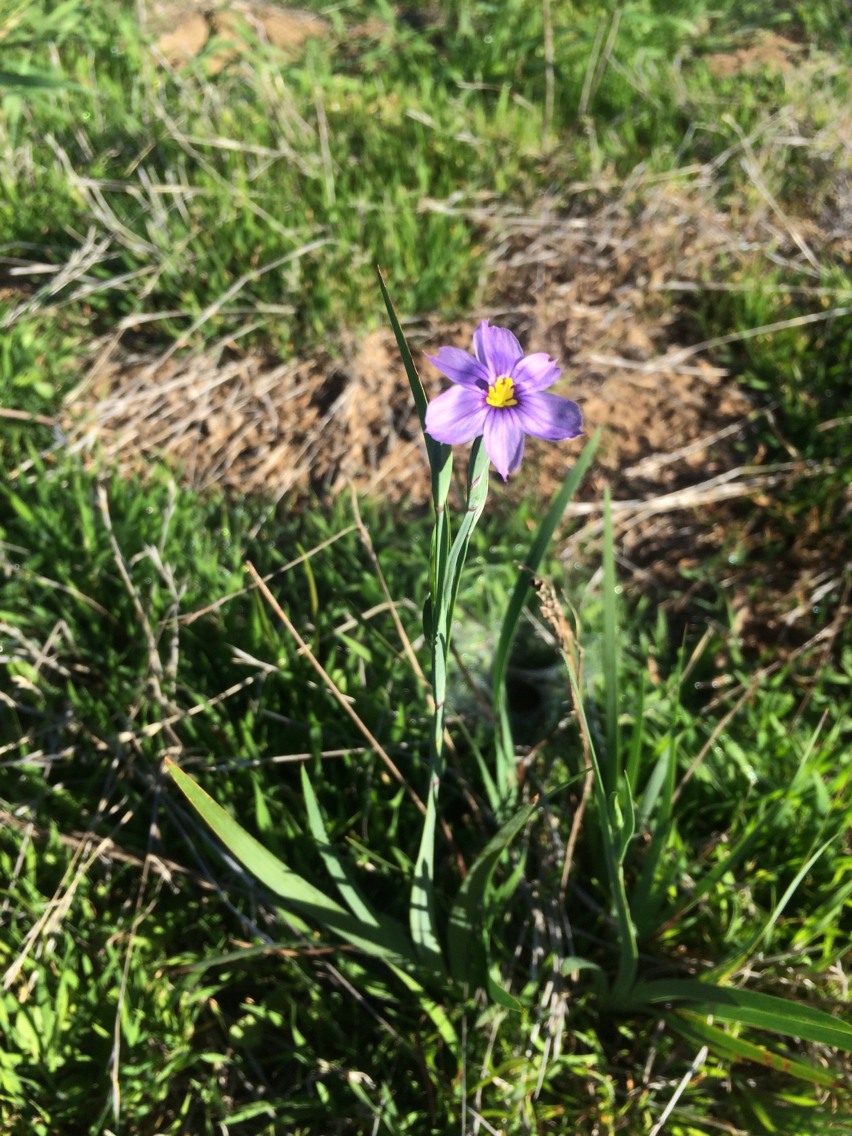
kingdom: Plantae
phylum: Tracheophyta
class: Liliopsida
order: Asparagales
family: Iridaceae
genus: Sisyrinchium
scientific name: Sisyrinchium bellum
